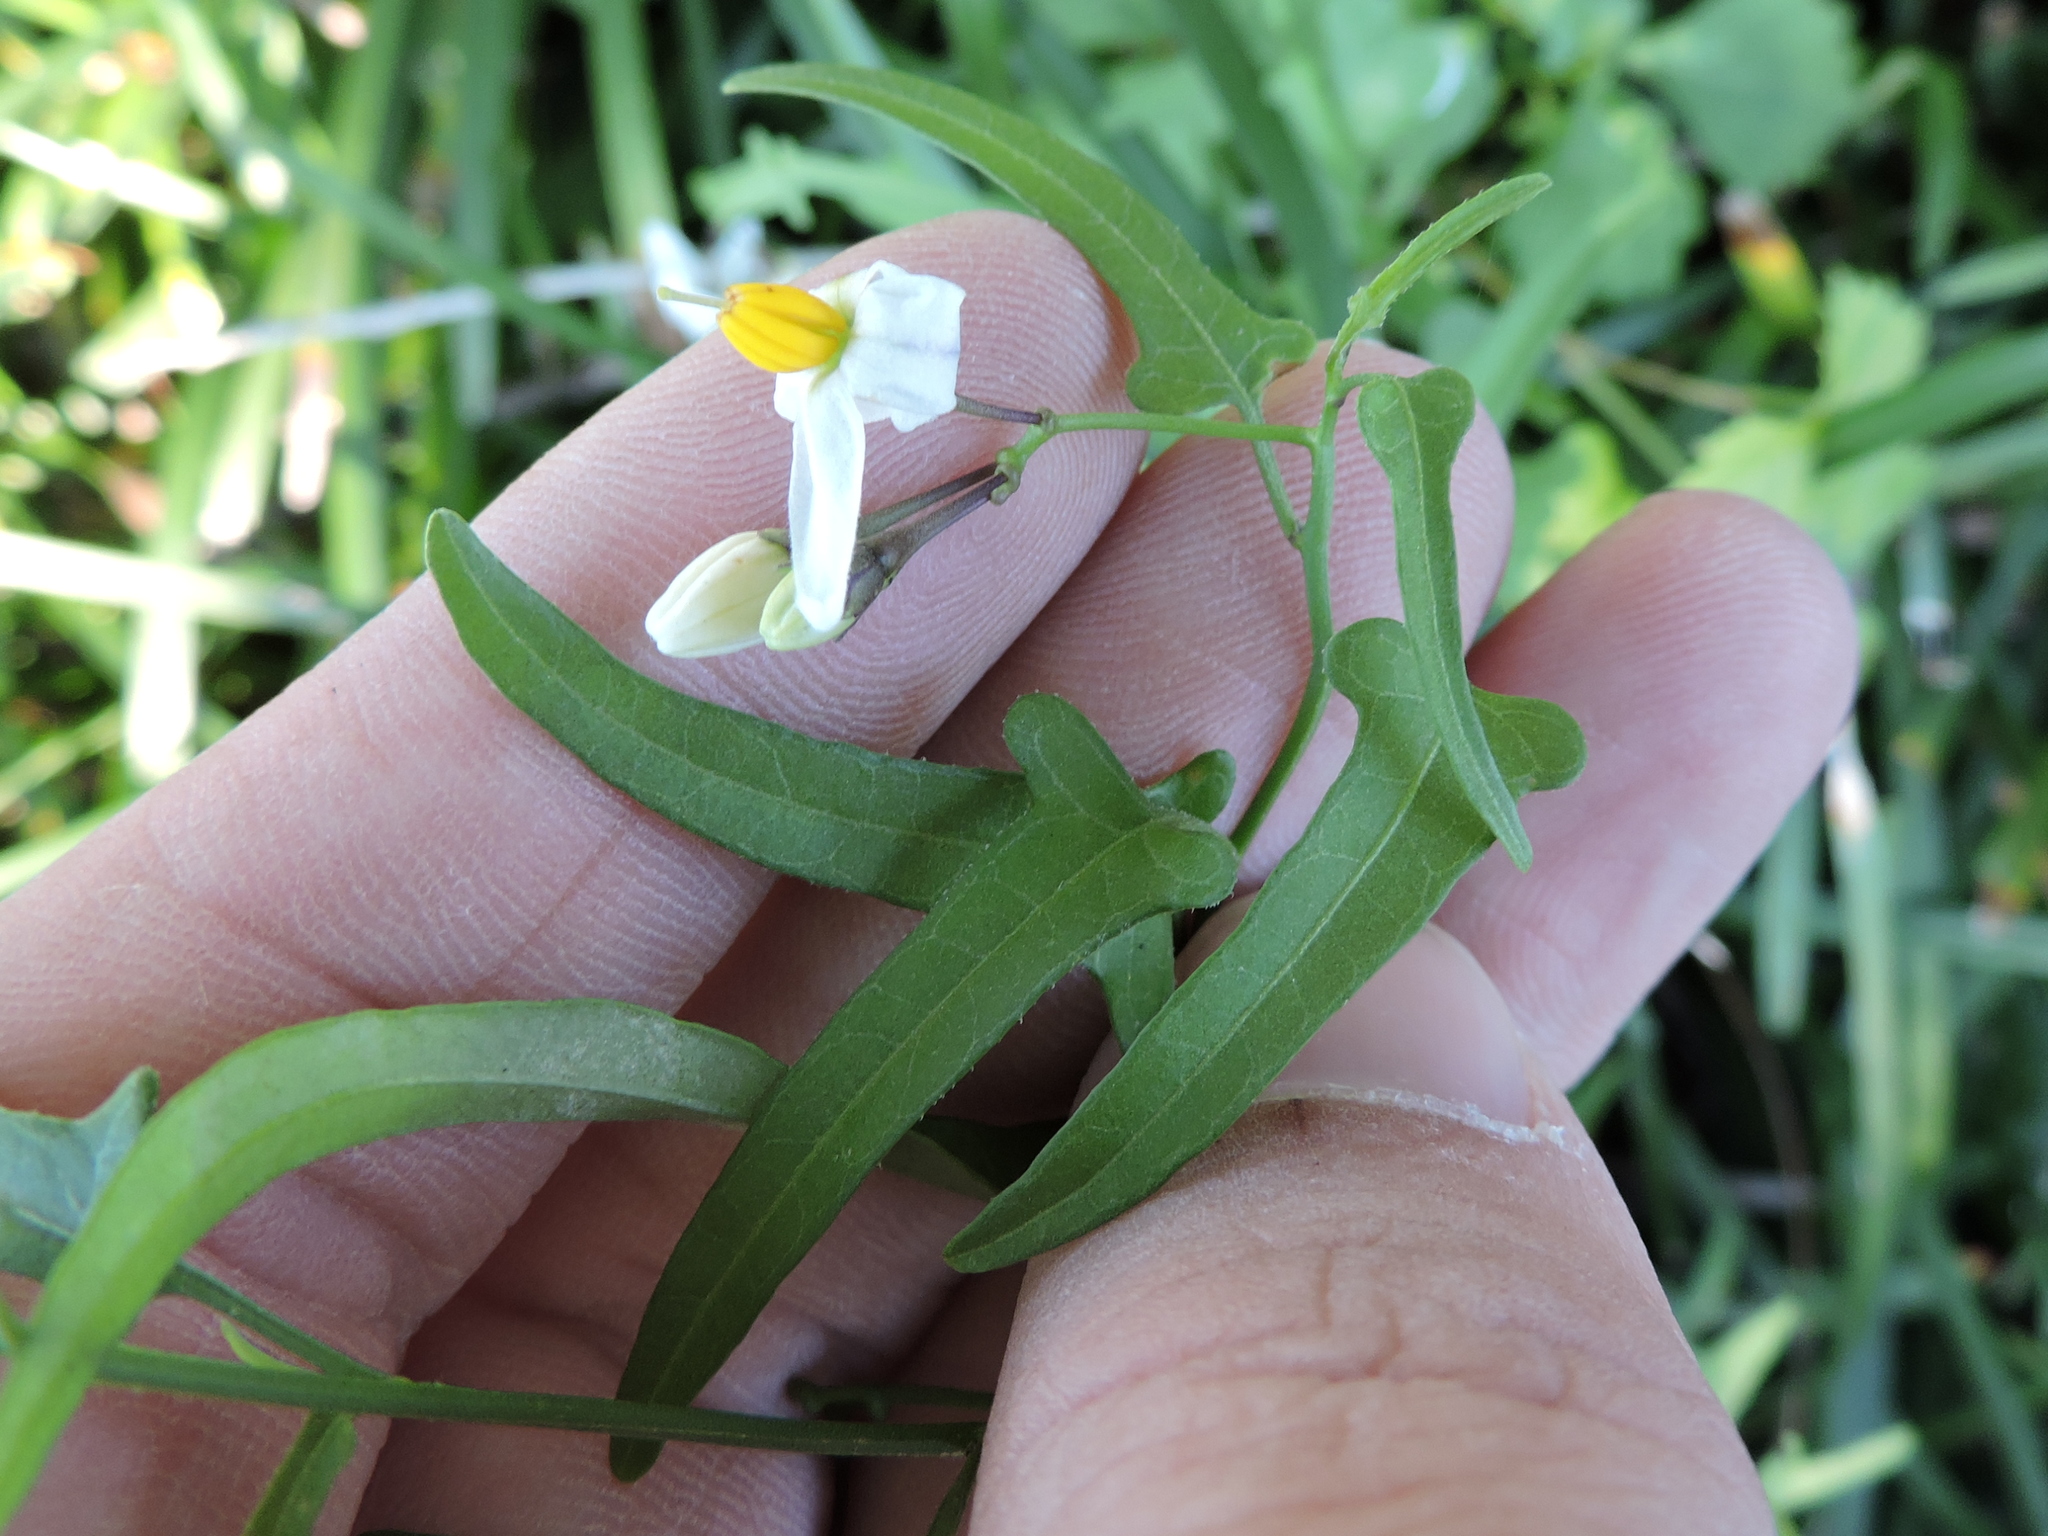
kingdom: Plantae
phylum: Tracheophyta
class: Magnoliopsida
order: Solanales
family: Solanaceae
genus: Solanum
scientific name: Solanum triquetrum
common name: Texas nightshade
